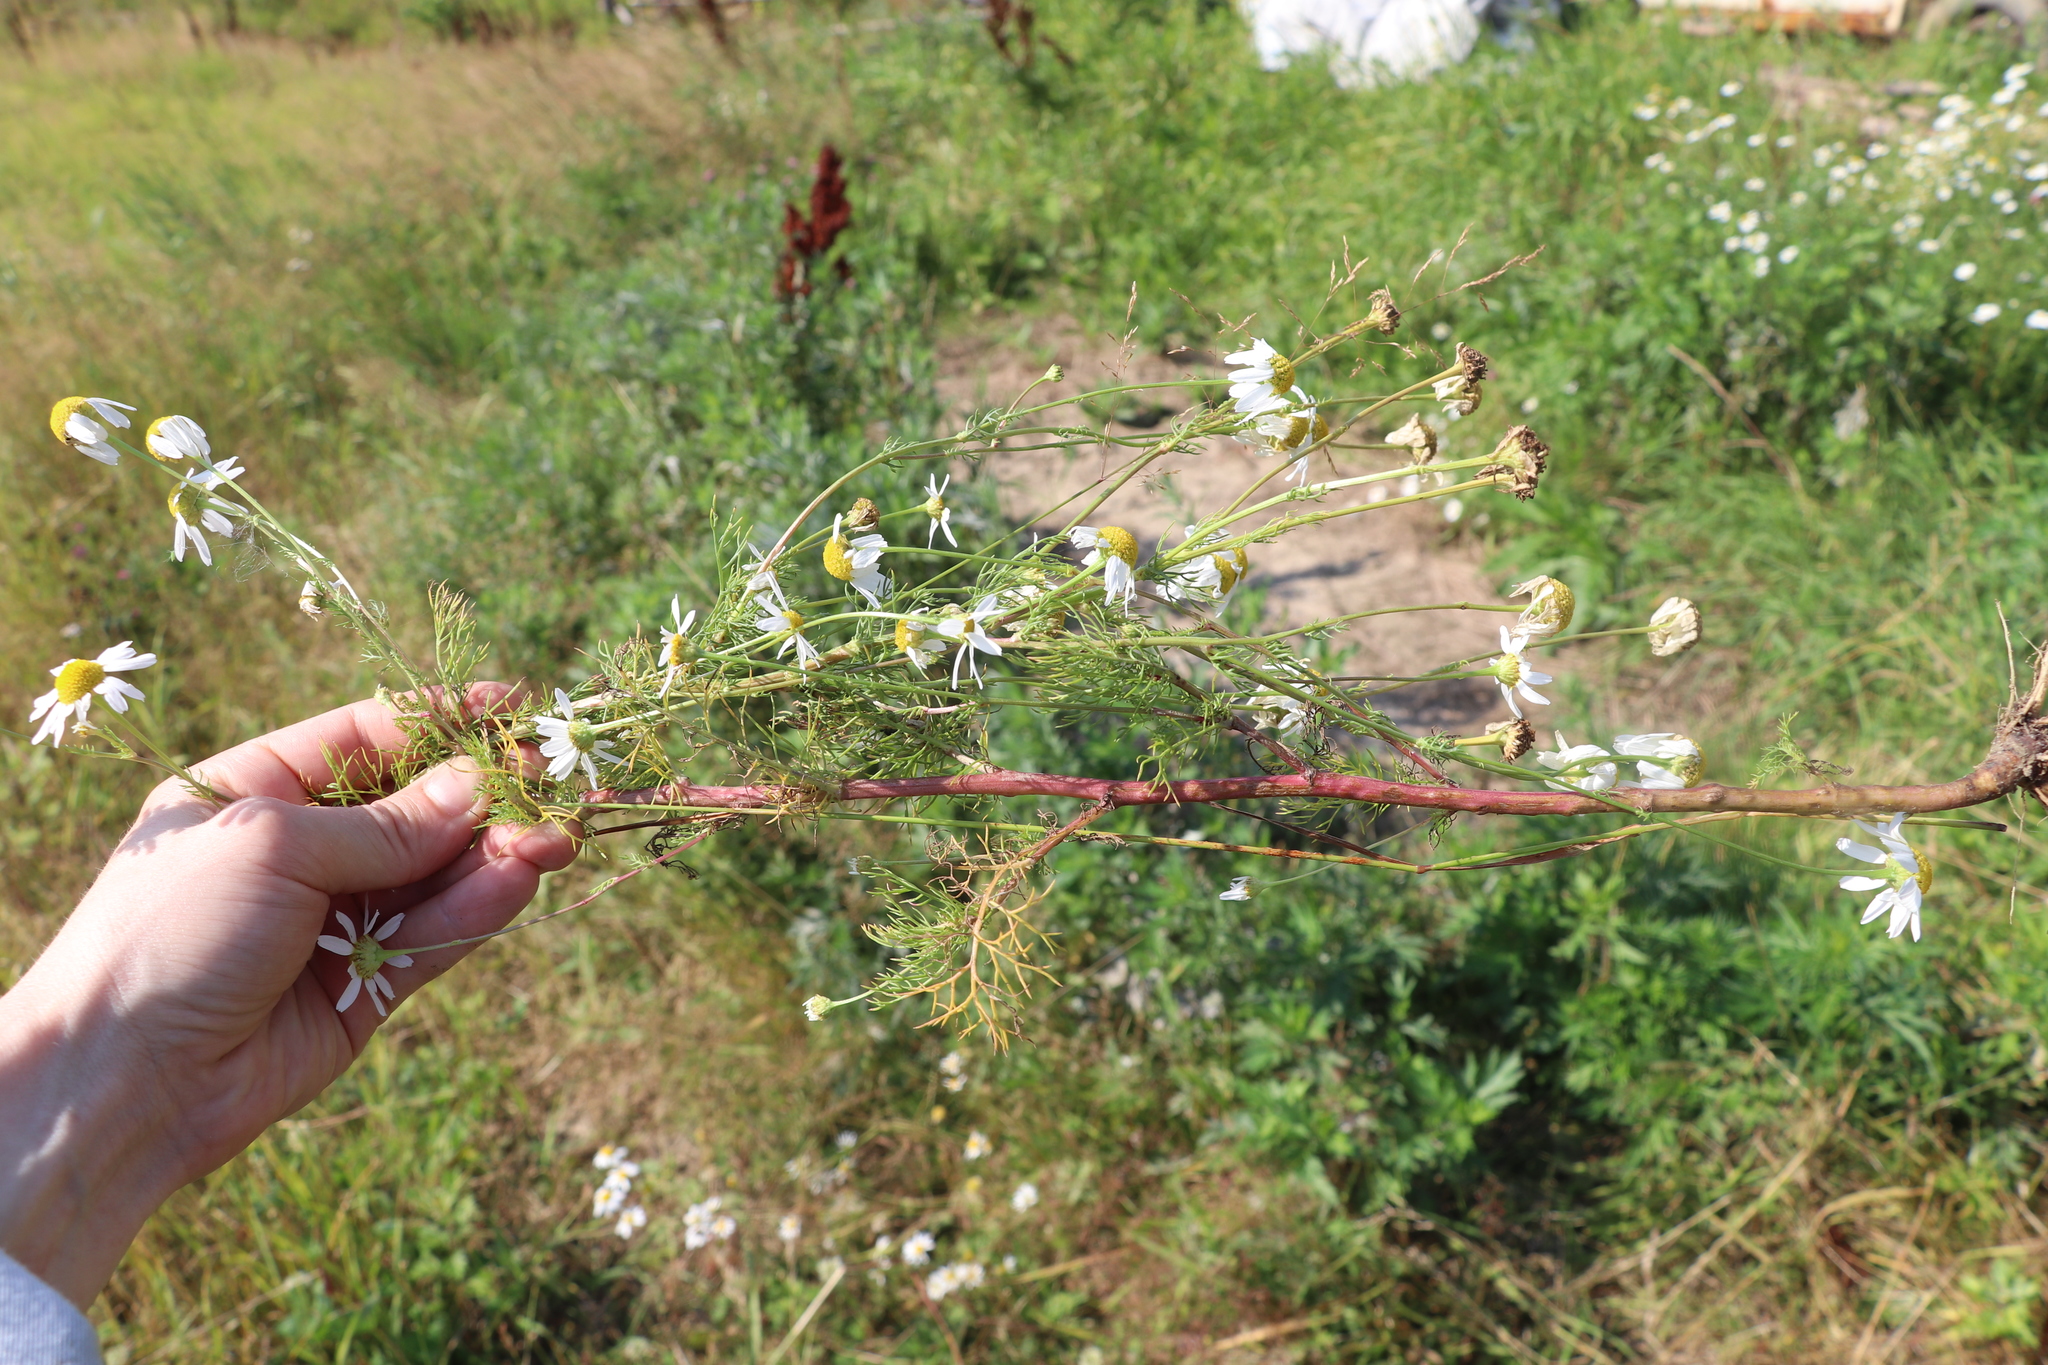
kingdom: Plantae
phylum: Tracheophyta
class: Magnoliopsida
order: Asterales
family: Asteraceae
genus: Tripleurospermum
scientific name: Tripleurospermum inodorum
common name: Scentless mayweed
